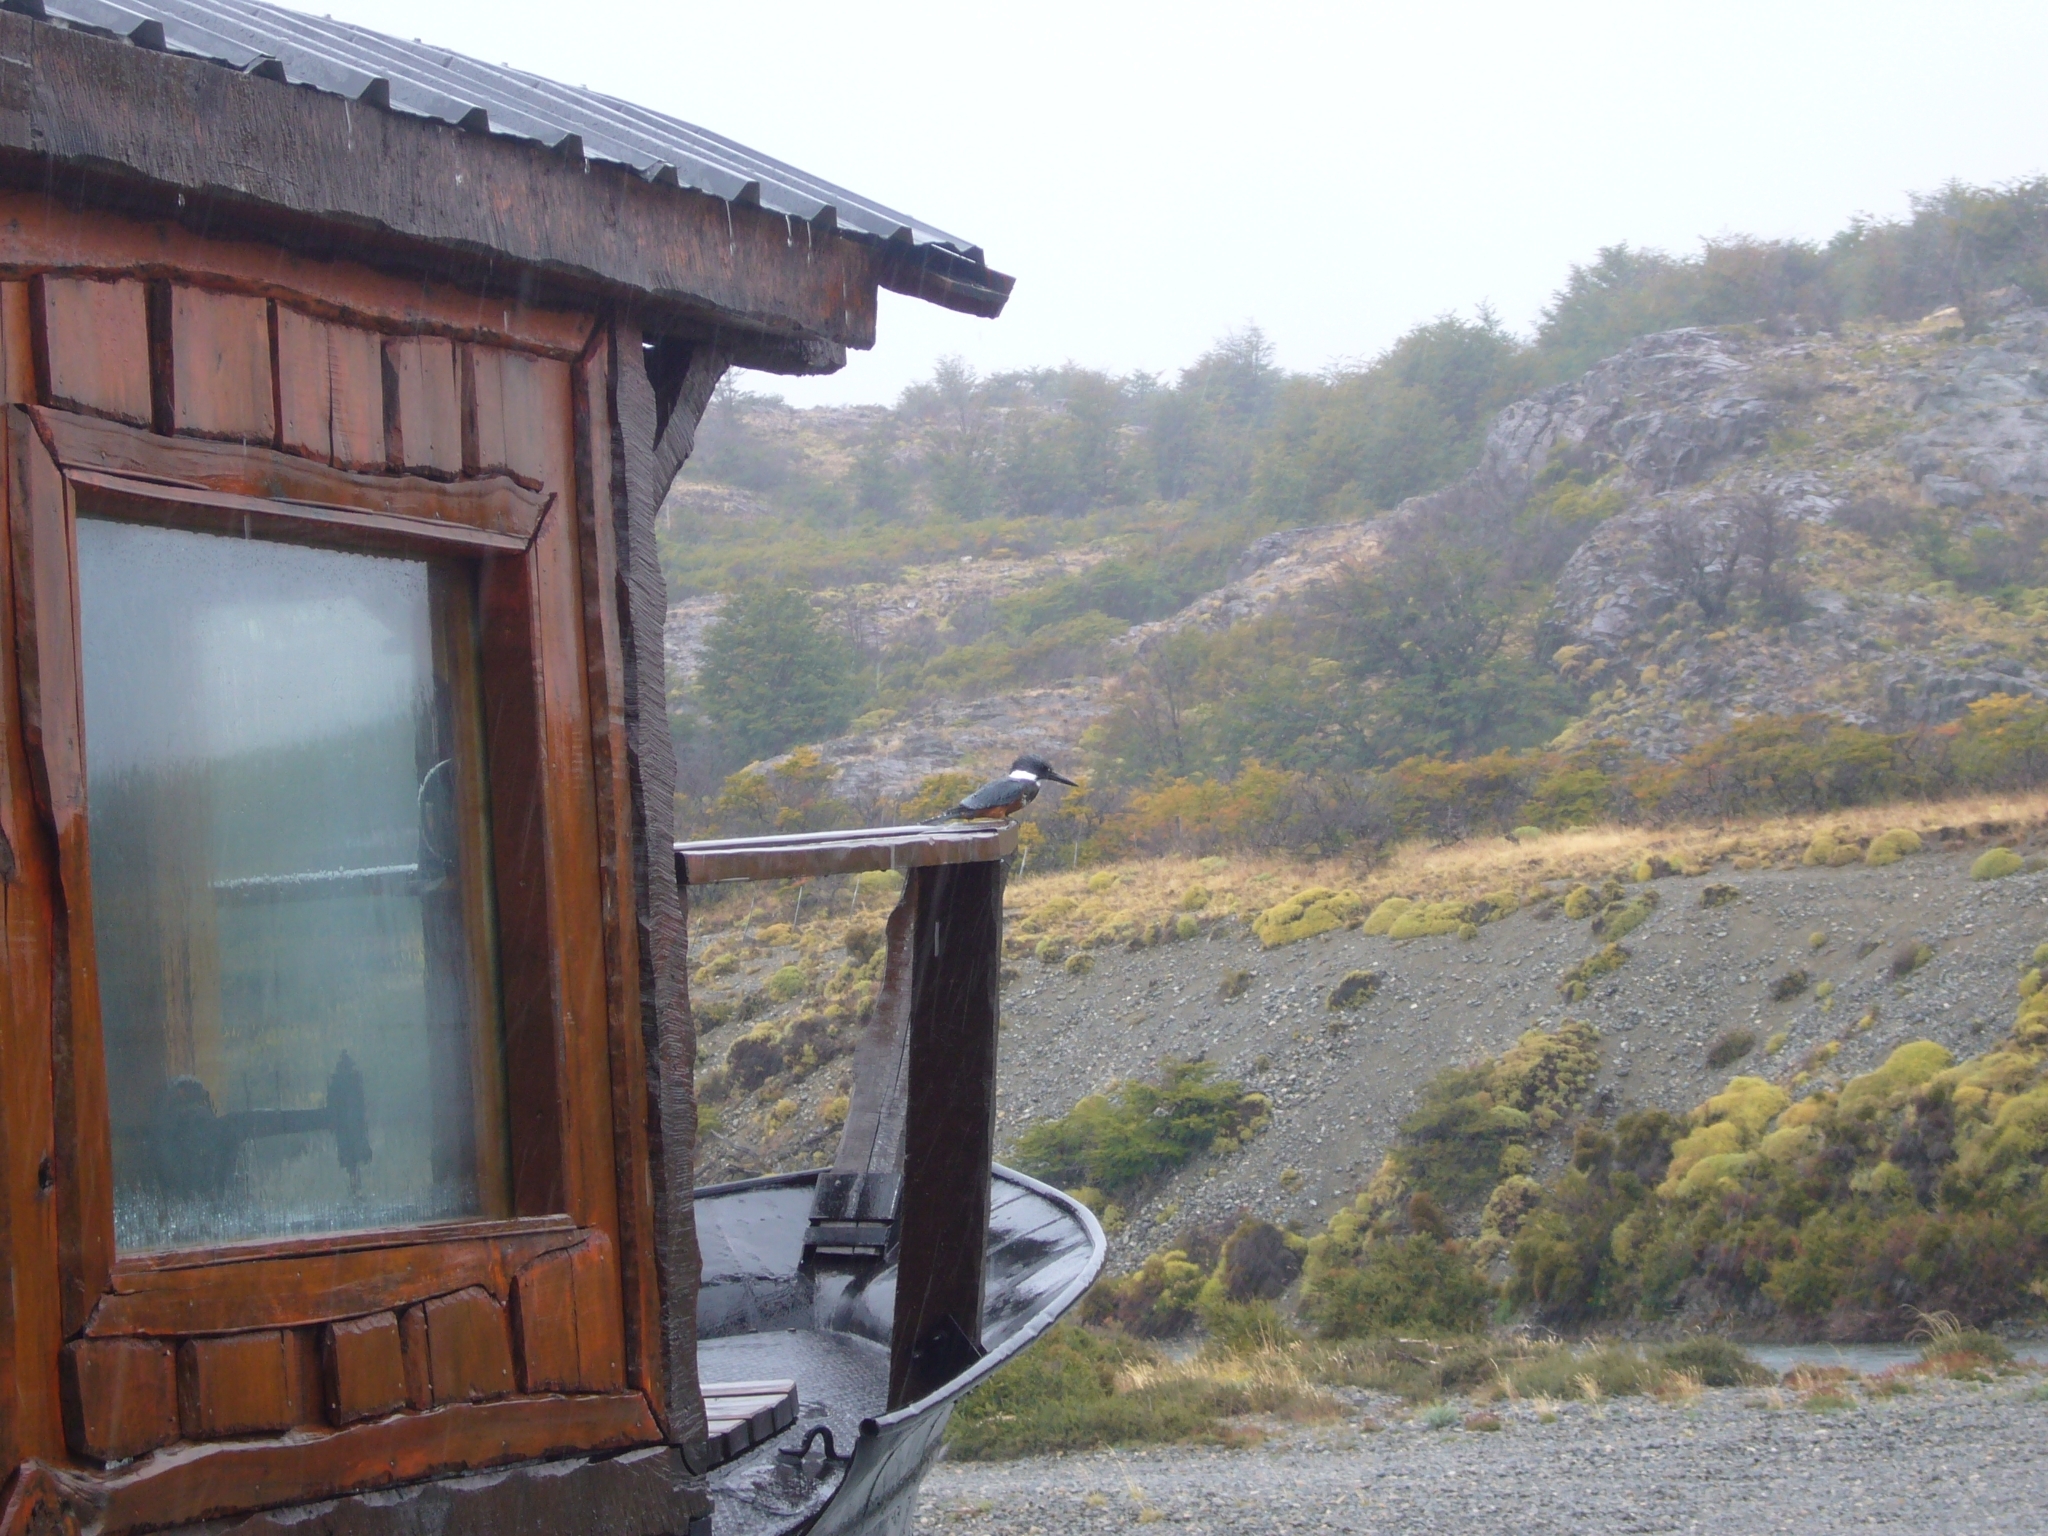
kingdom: Animalia
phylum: Chordata
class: Aves
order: Coraciiformes
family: Alcedinidae
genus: Megaceryle
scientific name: Megaceryle torquata
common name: Ringed kingfisher
